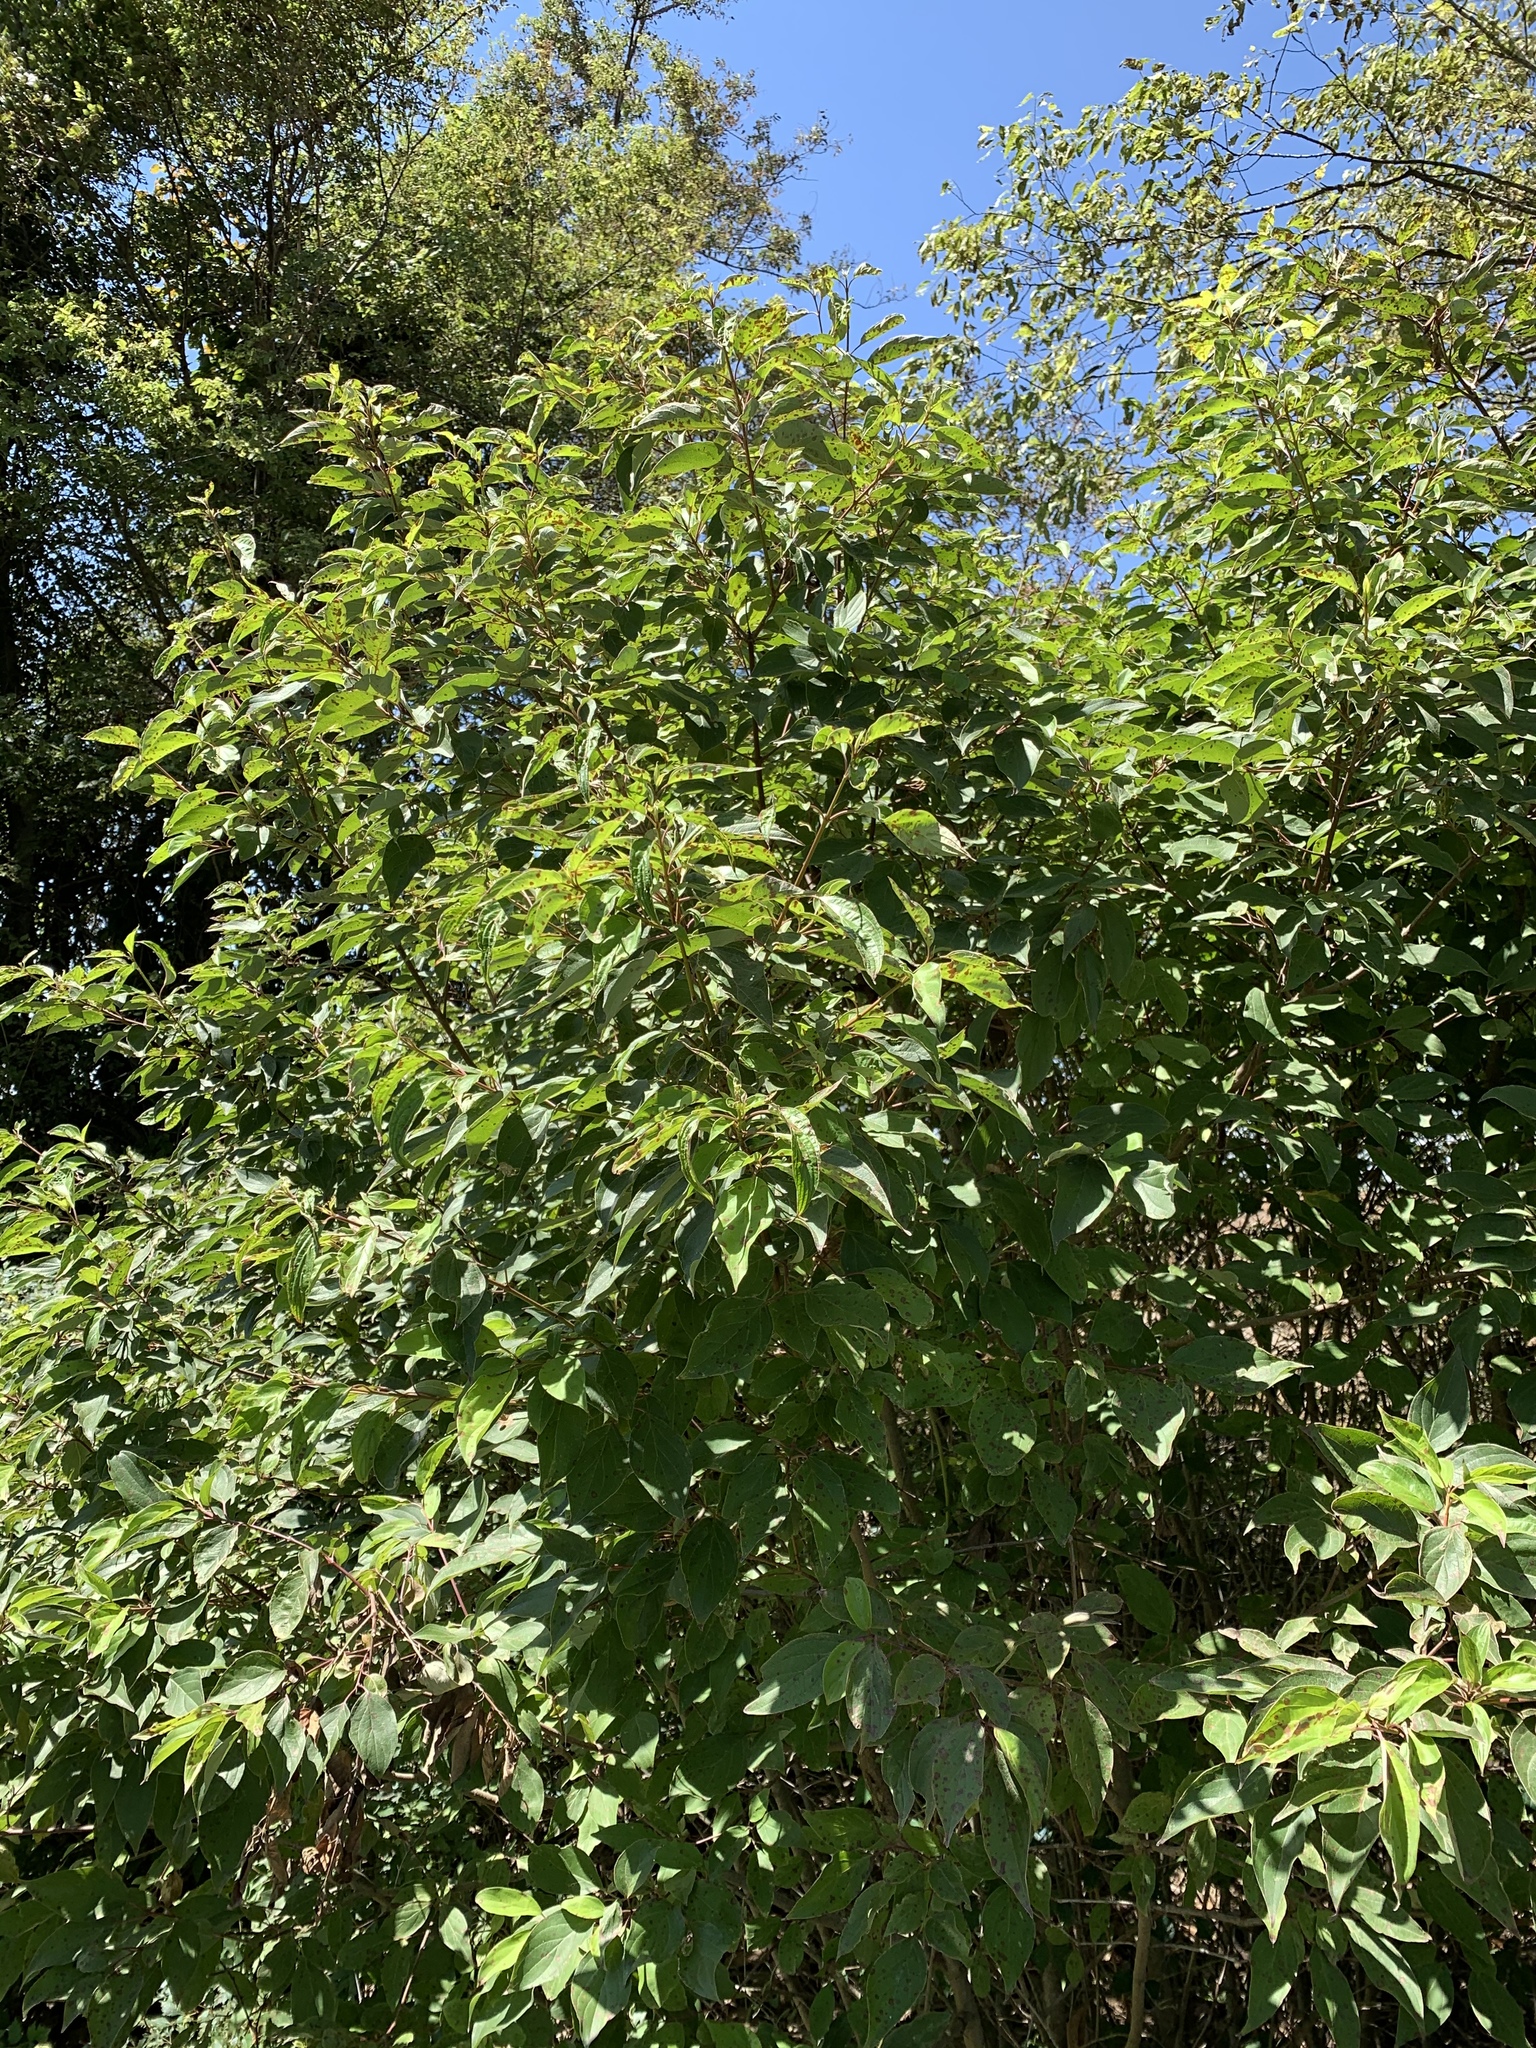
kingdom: Plantae
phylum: Tracheophyta
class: Magnoliopsida
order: Cornales
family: Cornaceae
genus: Cornus
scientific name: Cornus drummondii
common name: Rough-leaf dogwood
